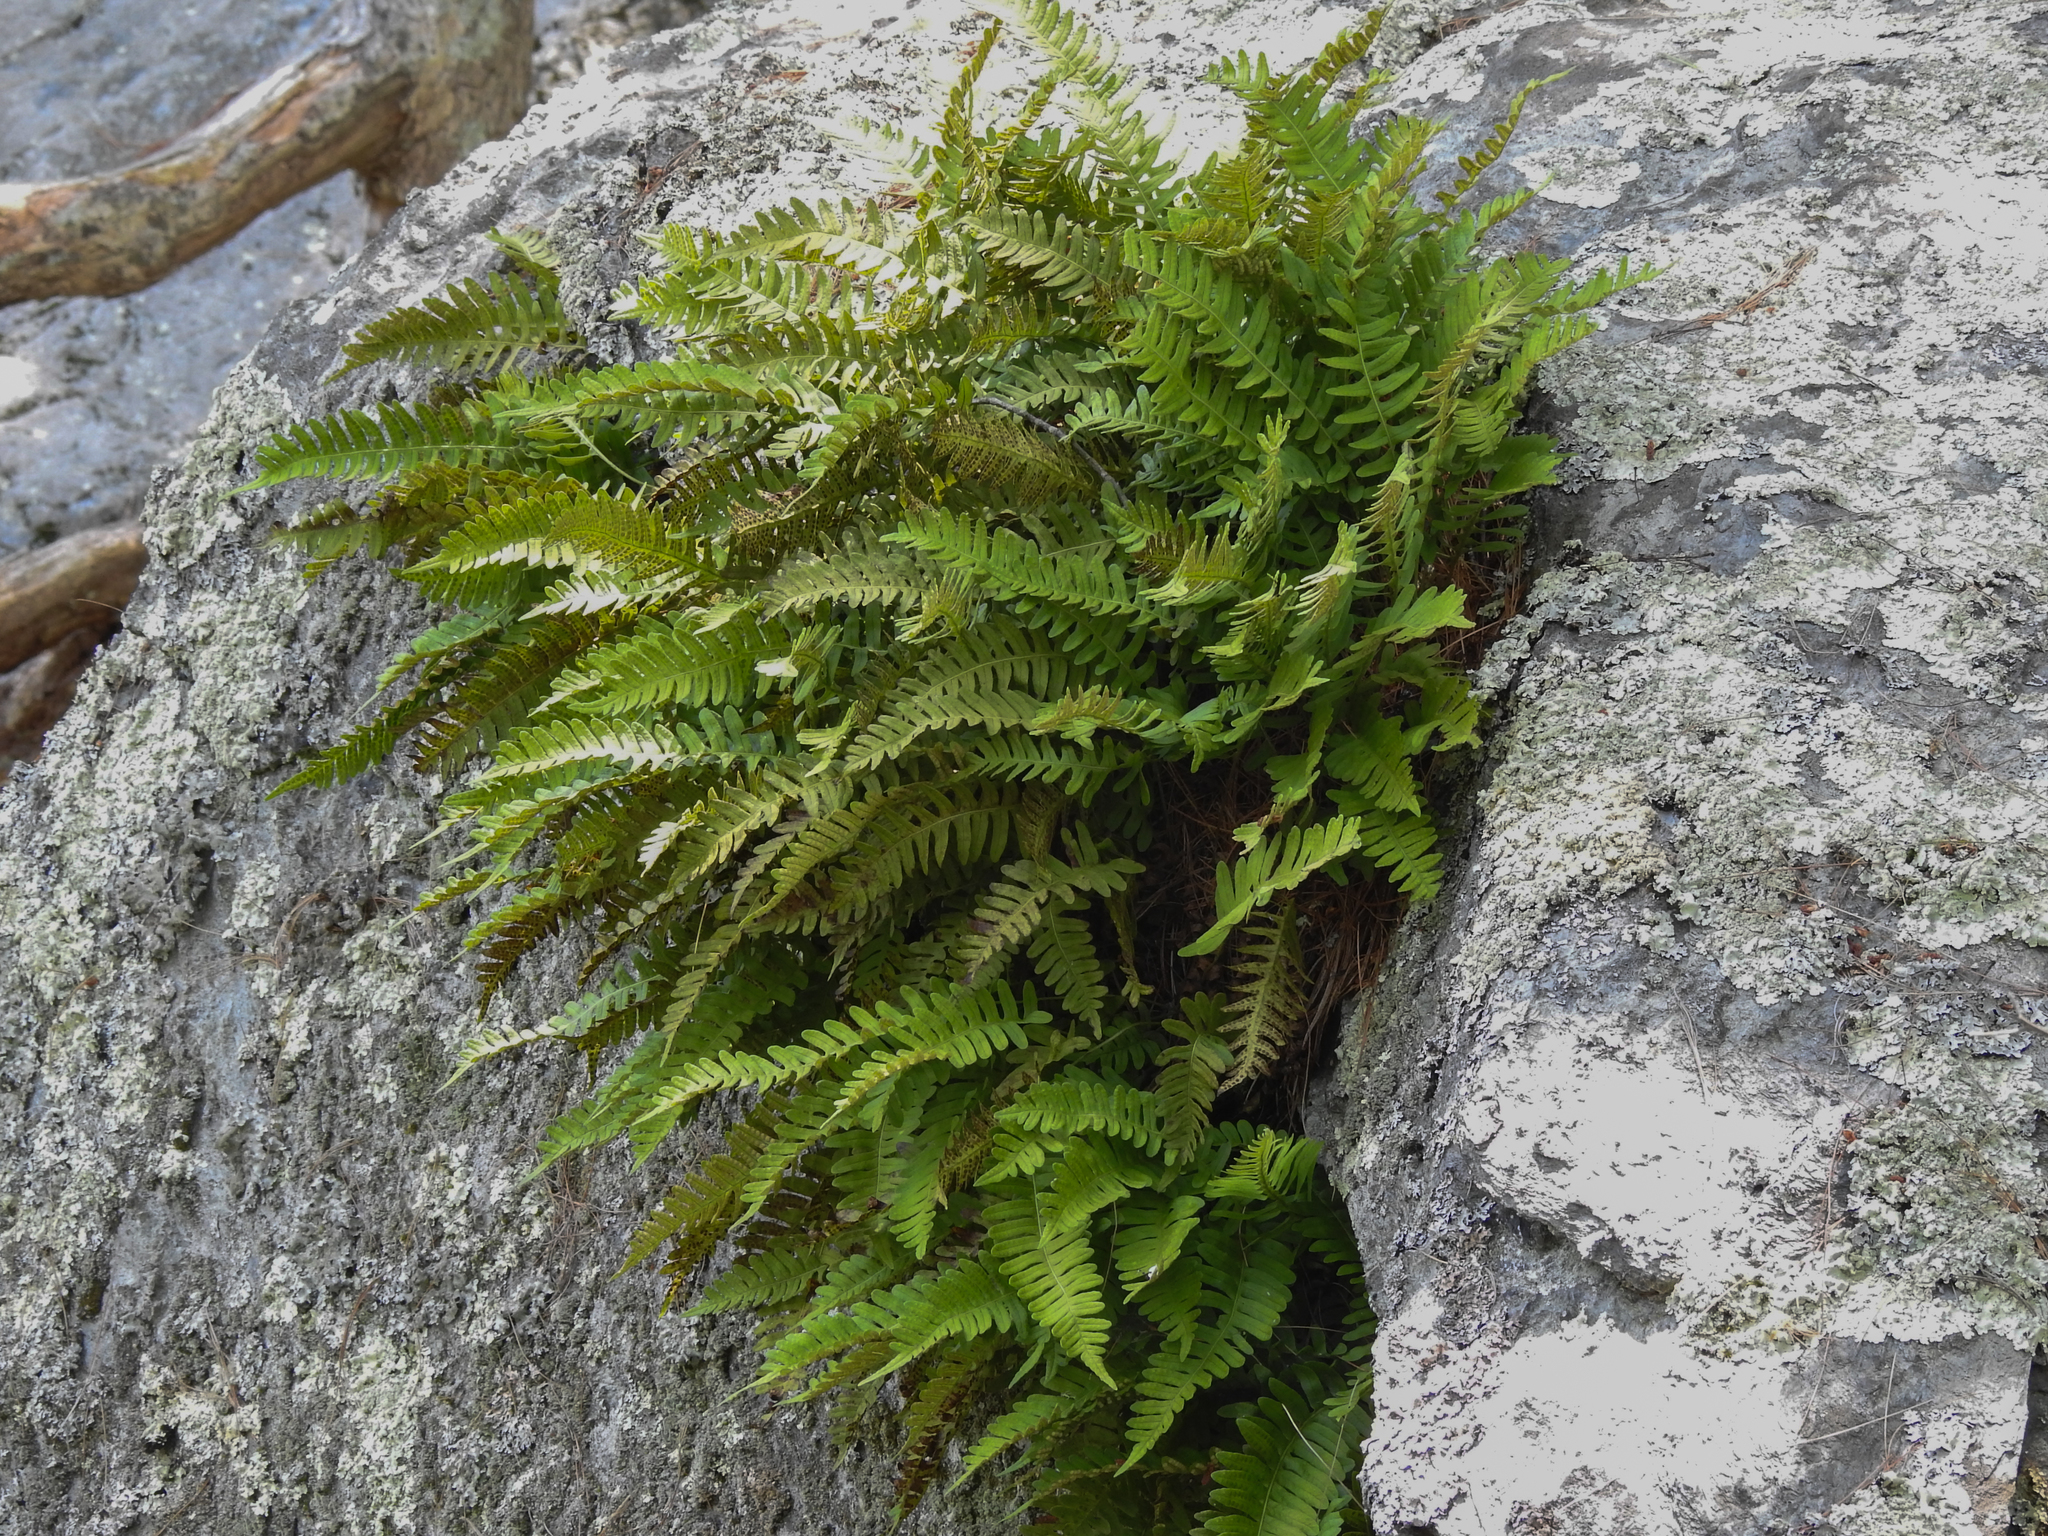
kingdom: Plantae
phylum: Tracheophyta
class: Polypodiopsida
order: Polypodiales
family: Polypodiaceae
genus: Polypodium
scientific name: Polypodium virginianum
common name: American wall fern
